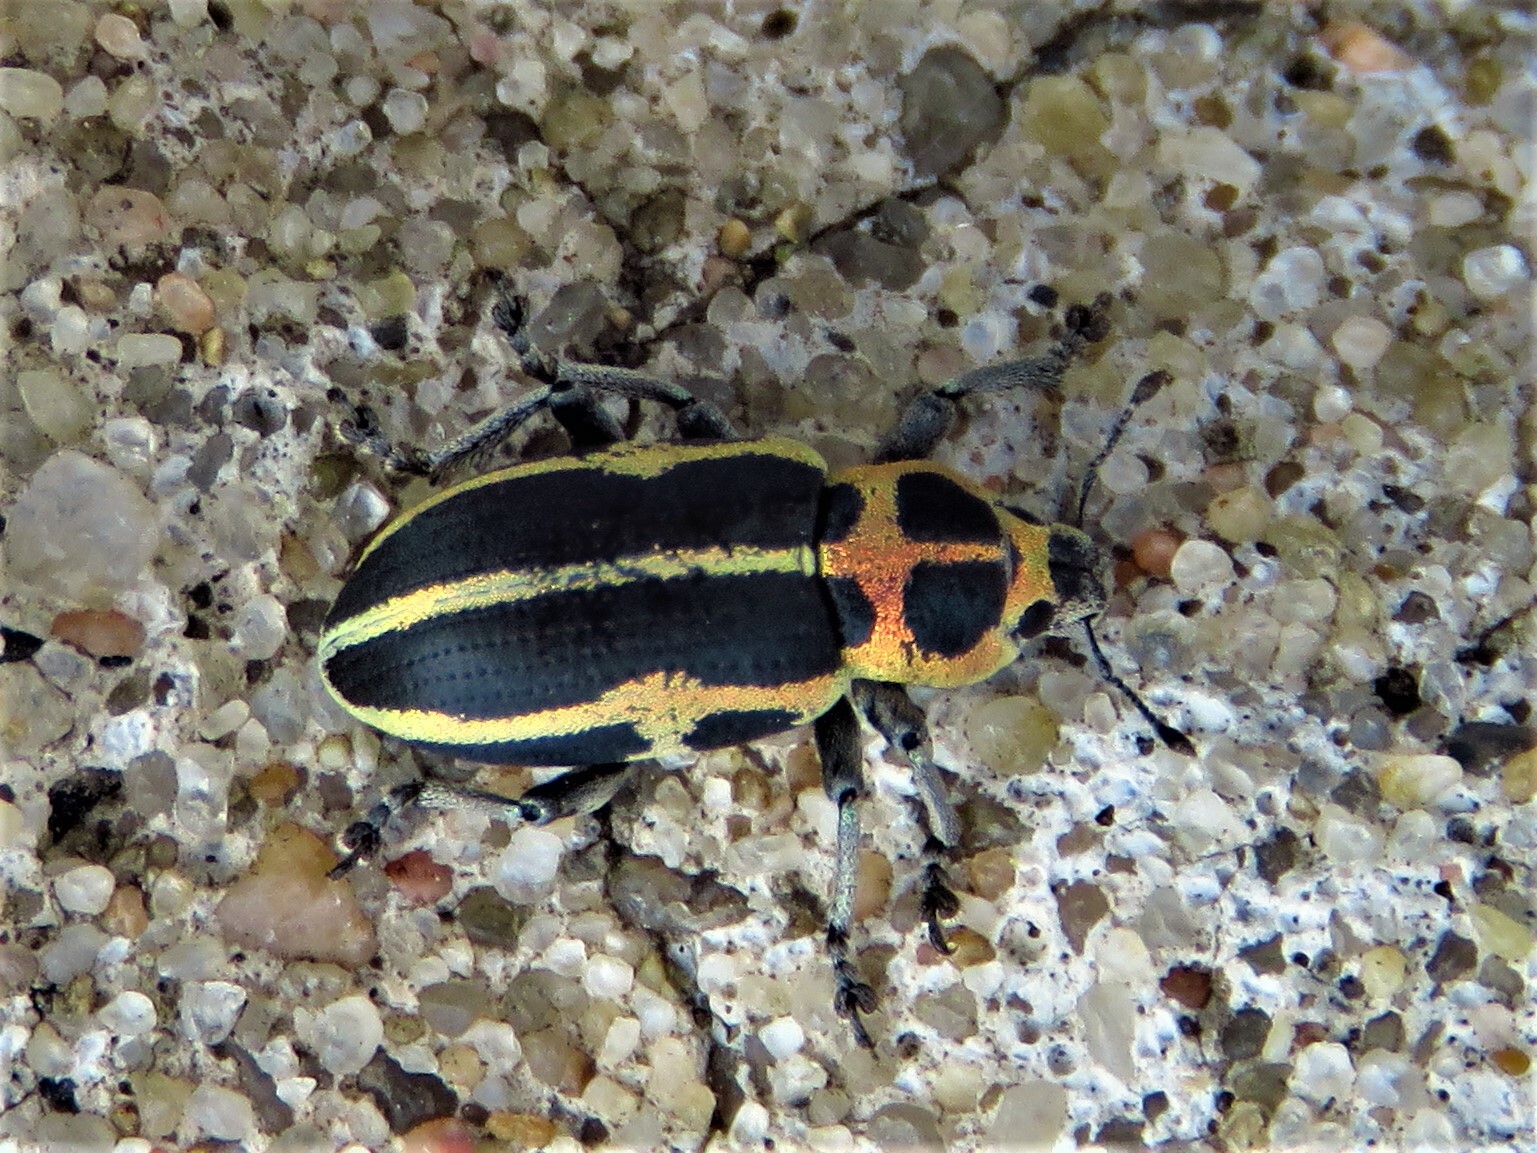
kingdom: Animalia
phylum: Arthropoda
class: Insecta
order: Coleoptera
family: Curculionidae
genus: Eudiagogus
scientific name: Eudiagogus pulcher
